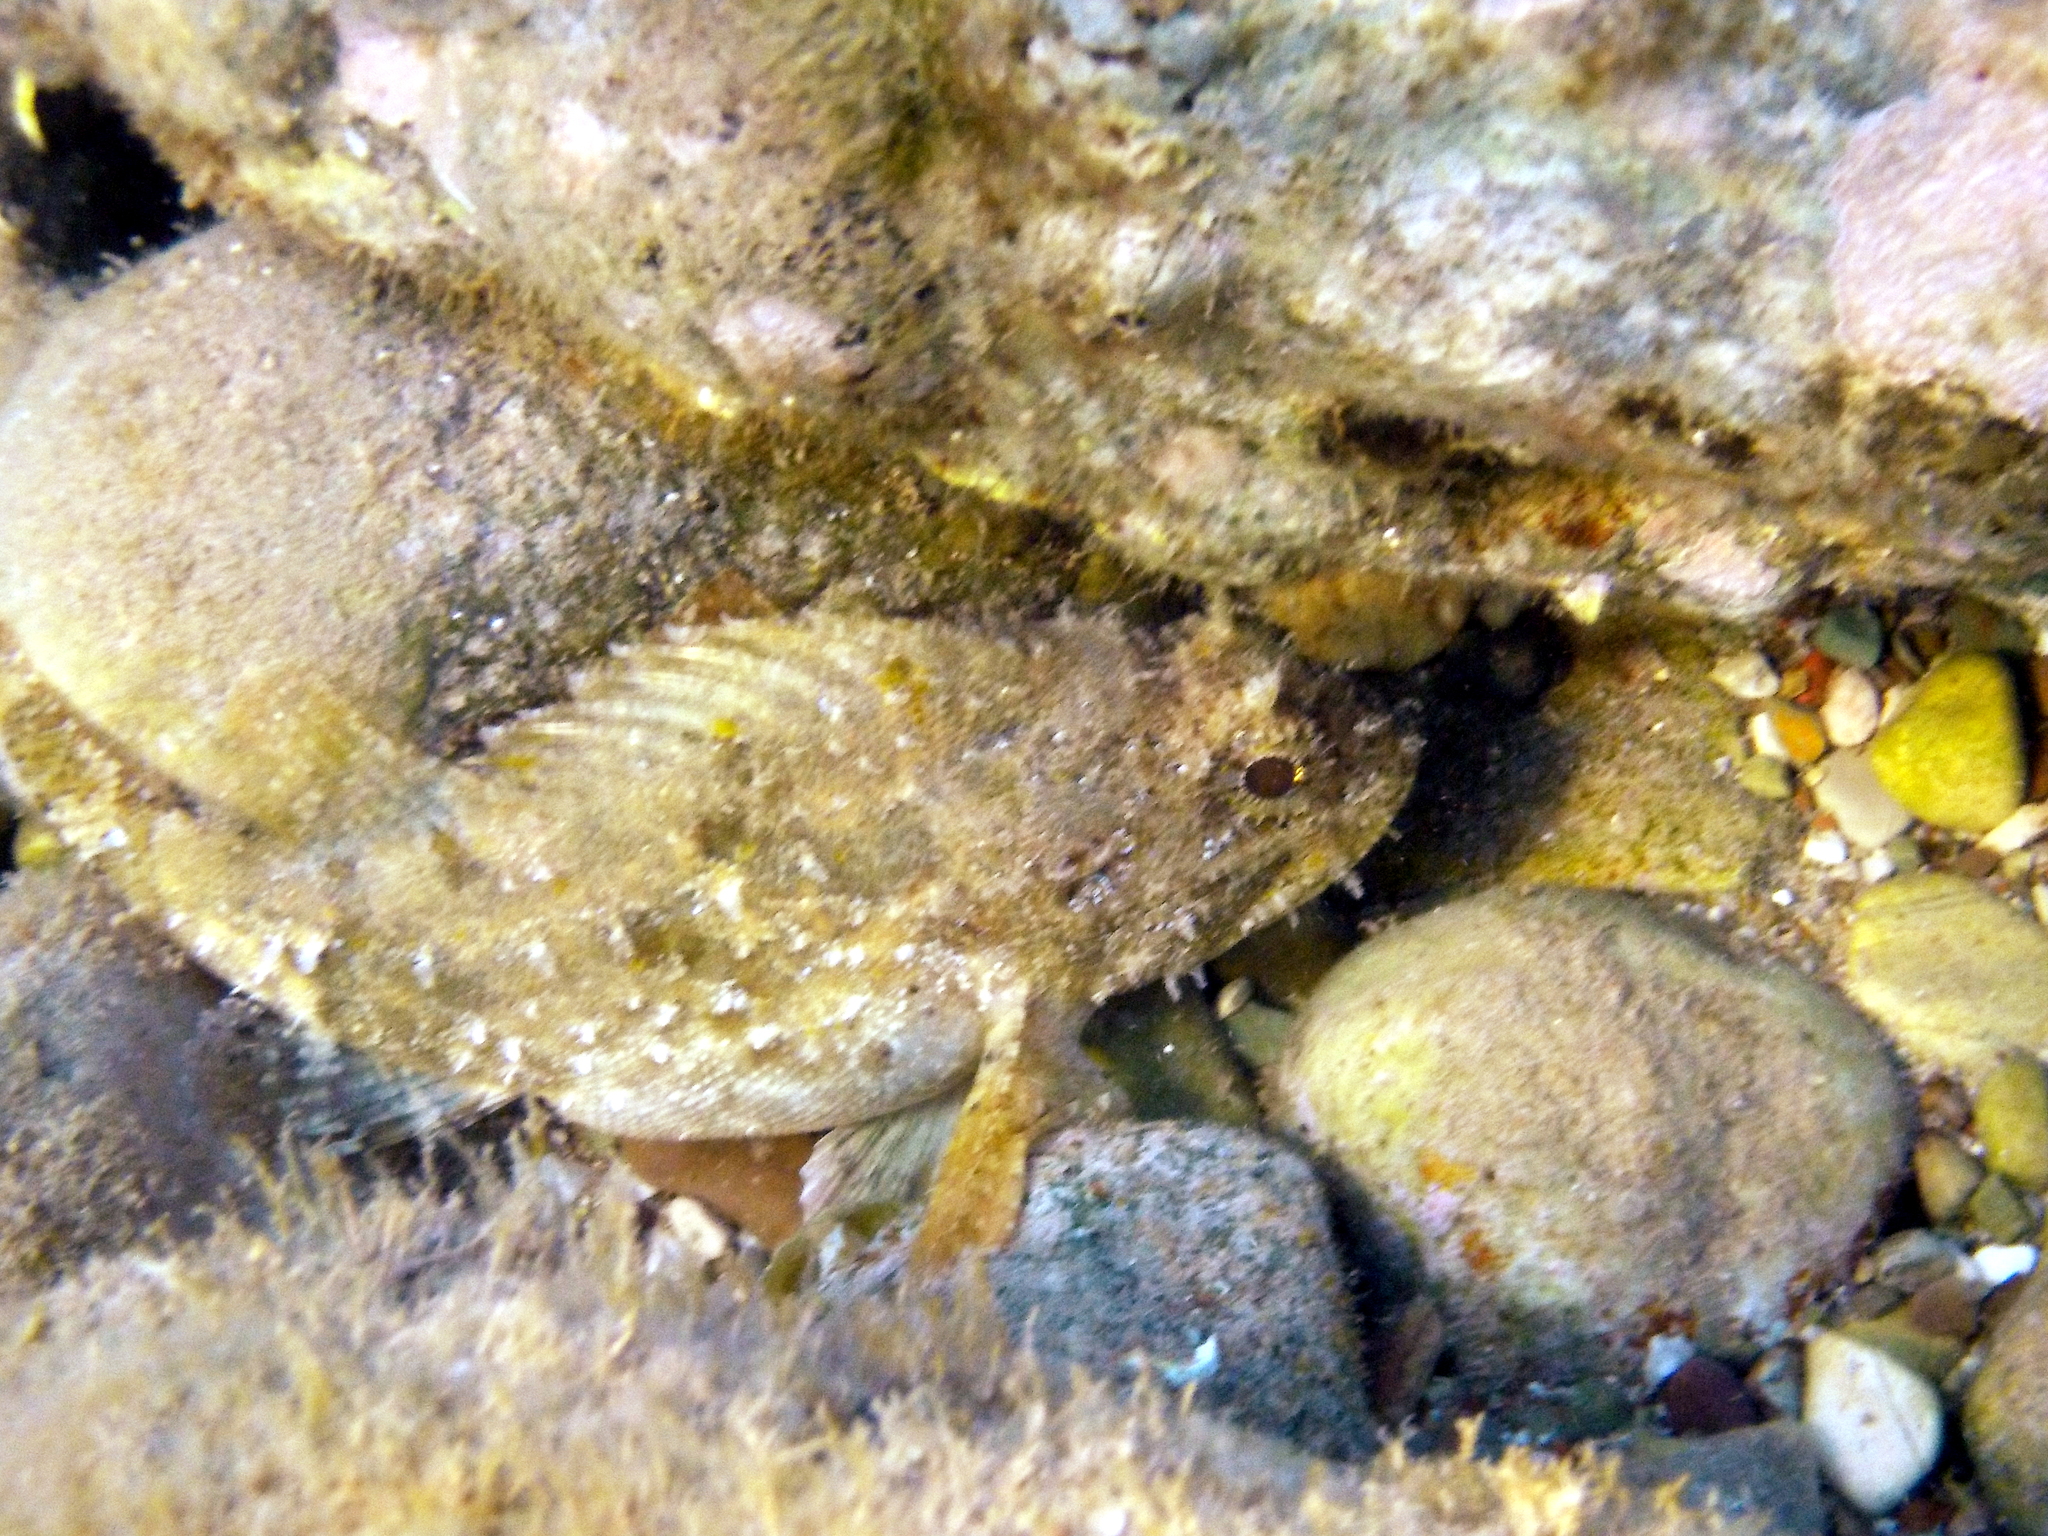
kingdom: Animalia
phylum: Chordata
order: Scorpaeniformes
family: Scorpaenidae
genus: Scorpaena
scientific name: Scorpaena porcus
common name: Black scorpionfish
